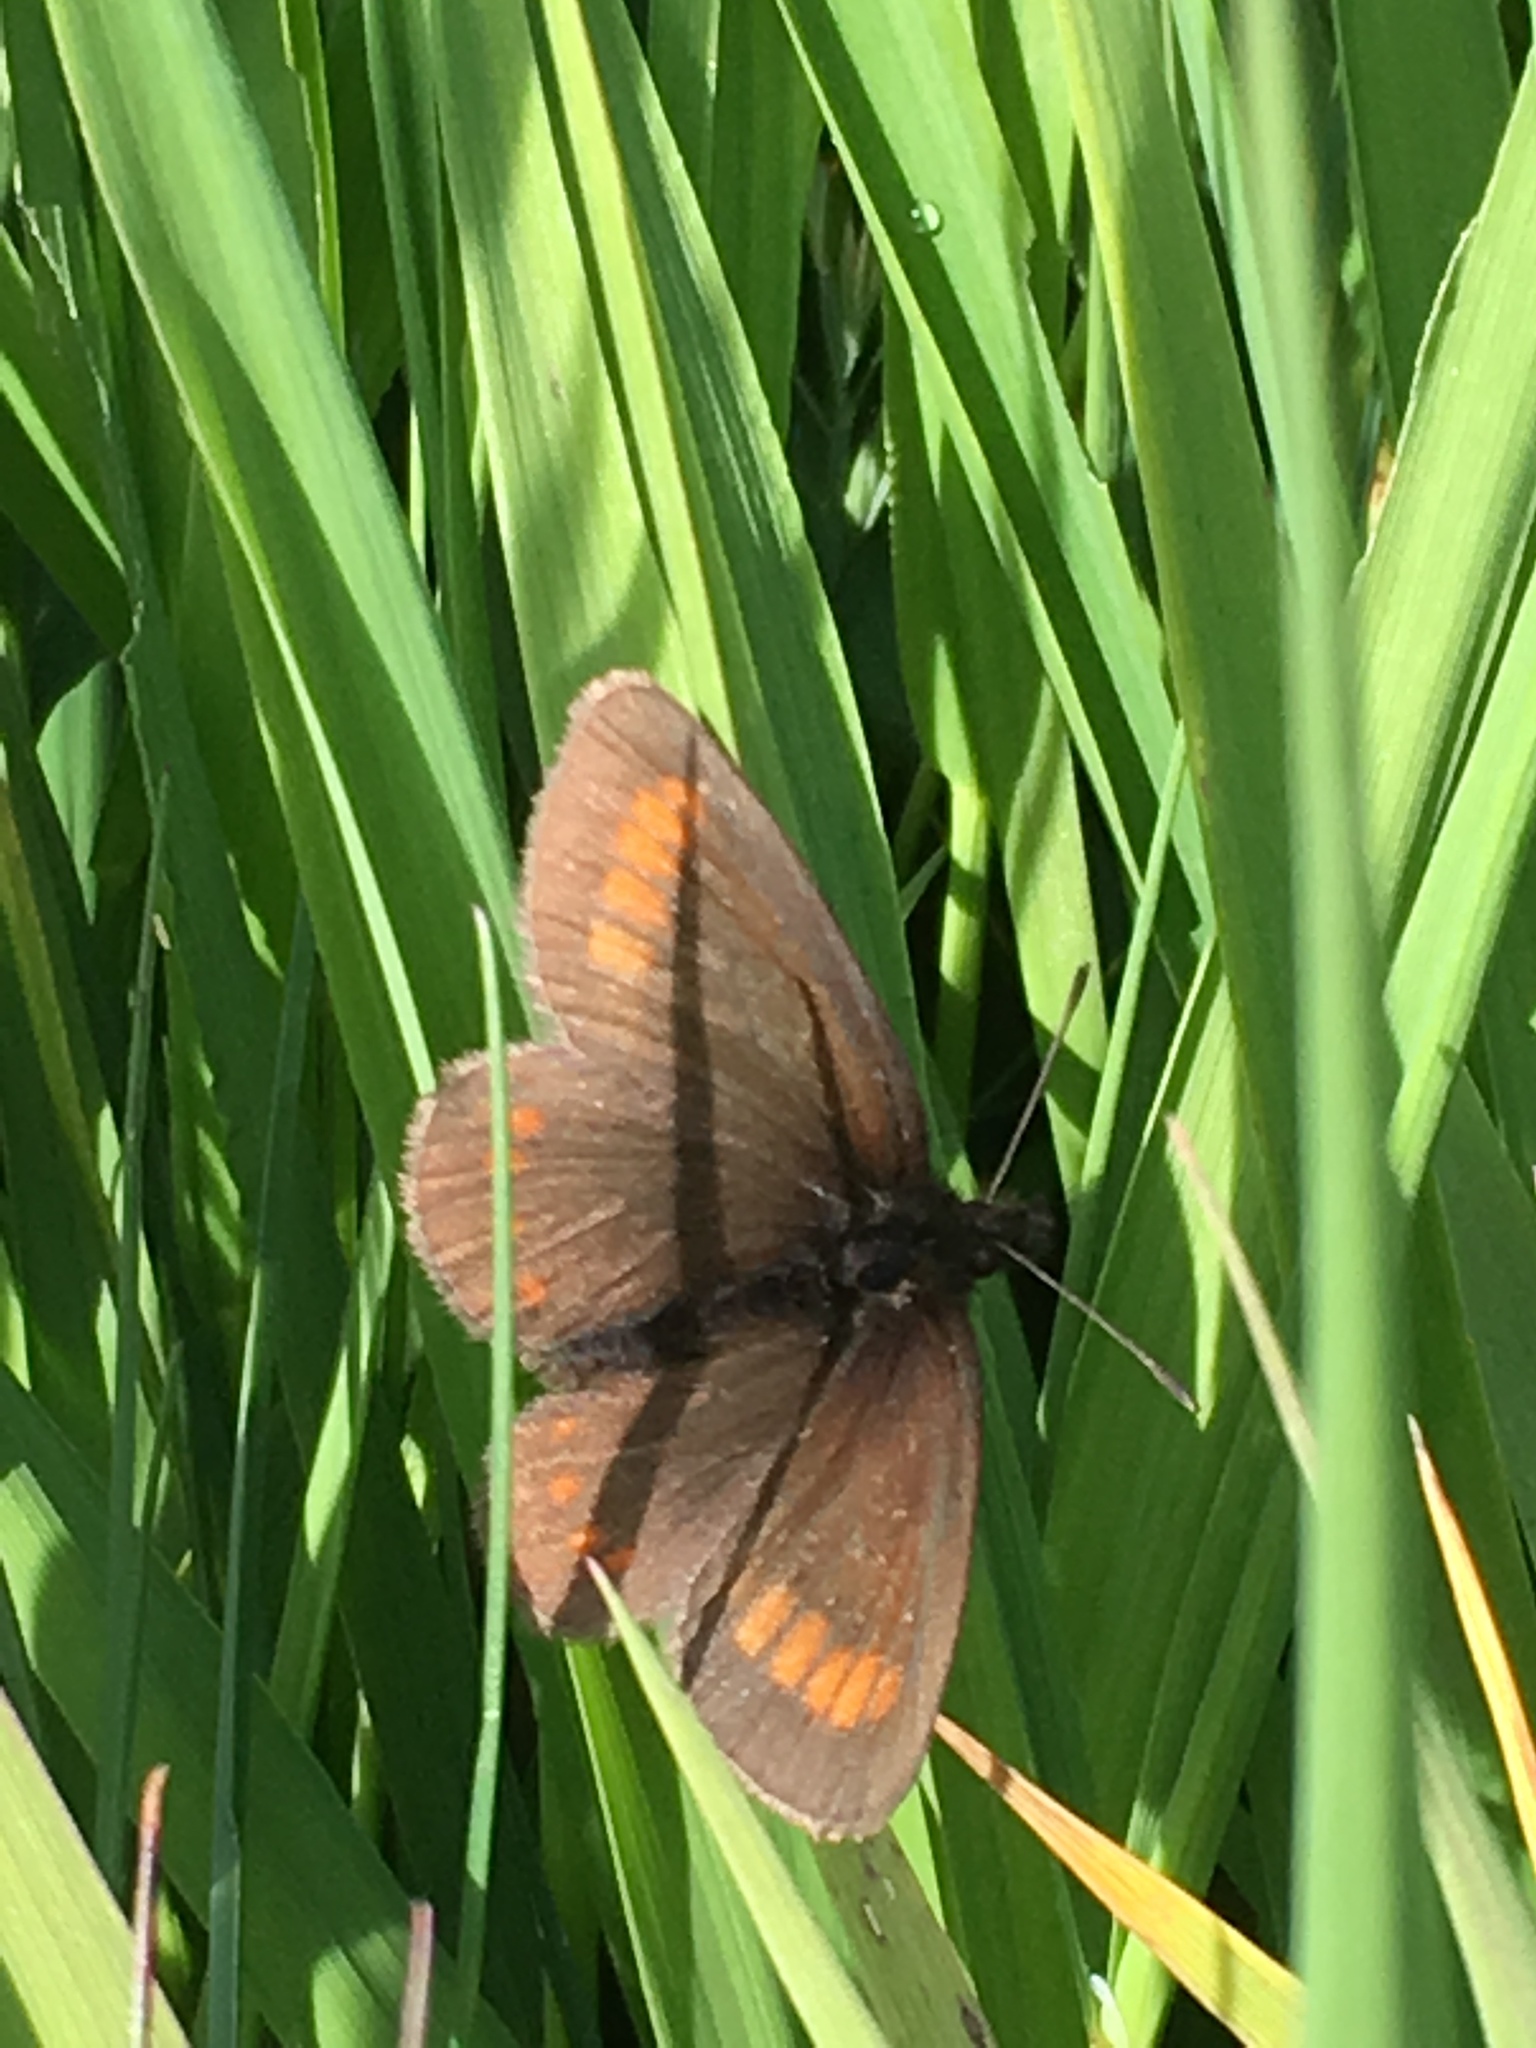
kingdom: Animalia
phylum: Arthropoda
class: Insecta
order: Lepidoptera
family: Nymphalidae
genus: Erebia
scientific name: Erebia pharte
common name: Blind ringlet
